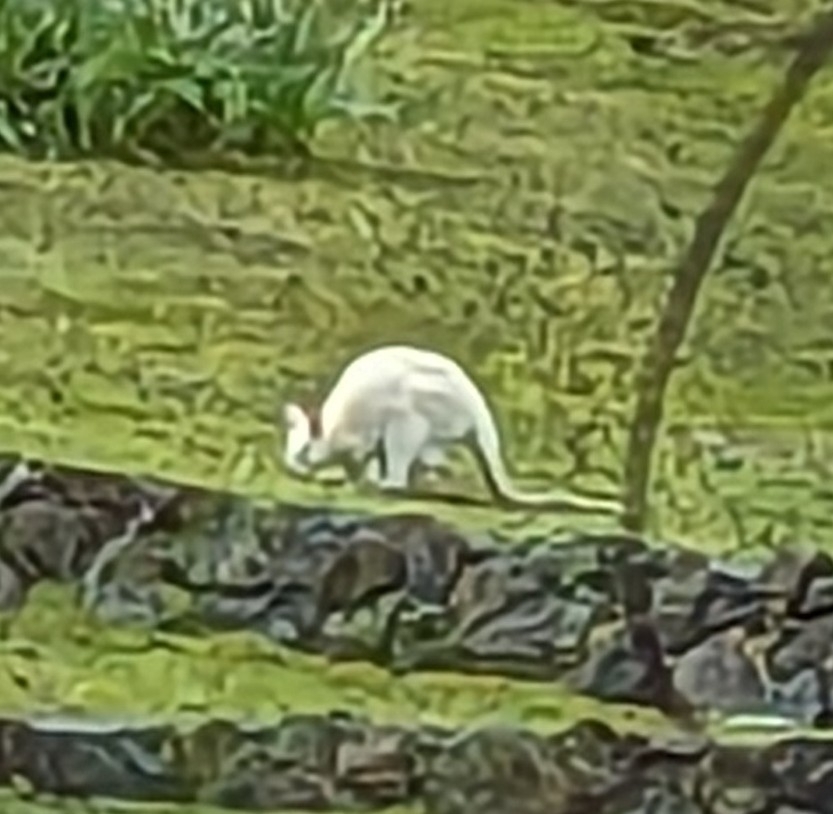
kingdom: Animalia
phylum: Chordata
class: Mammalia
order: Diprotodontia
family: Macropodidae
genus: Notamacropus
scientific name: Notamacropus rufogriseus
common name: Red-necked wallaby
